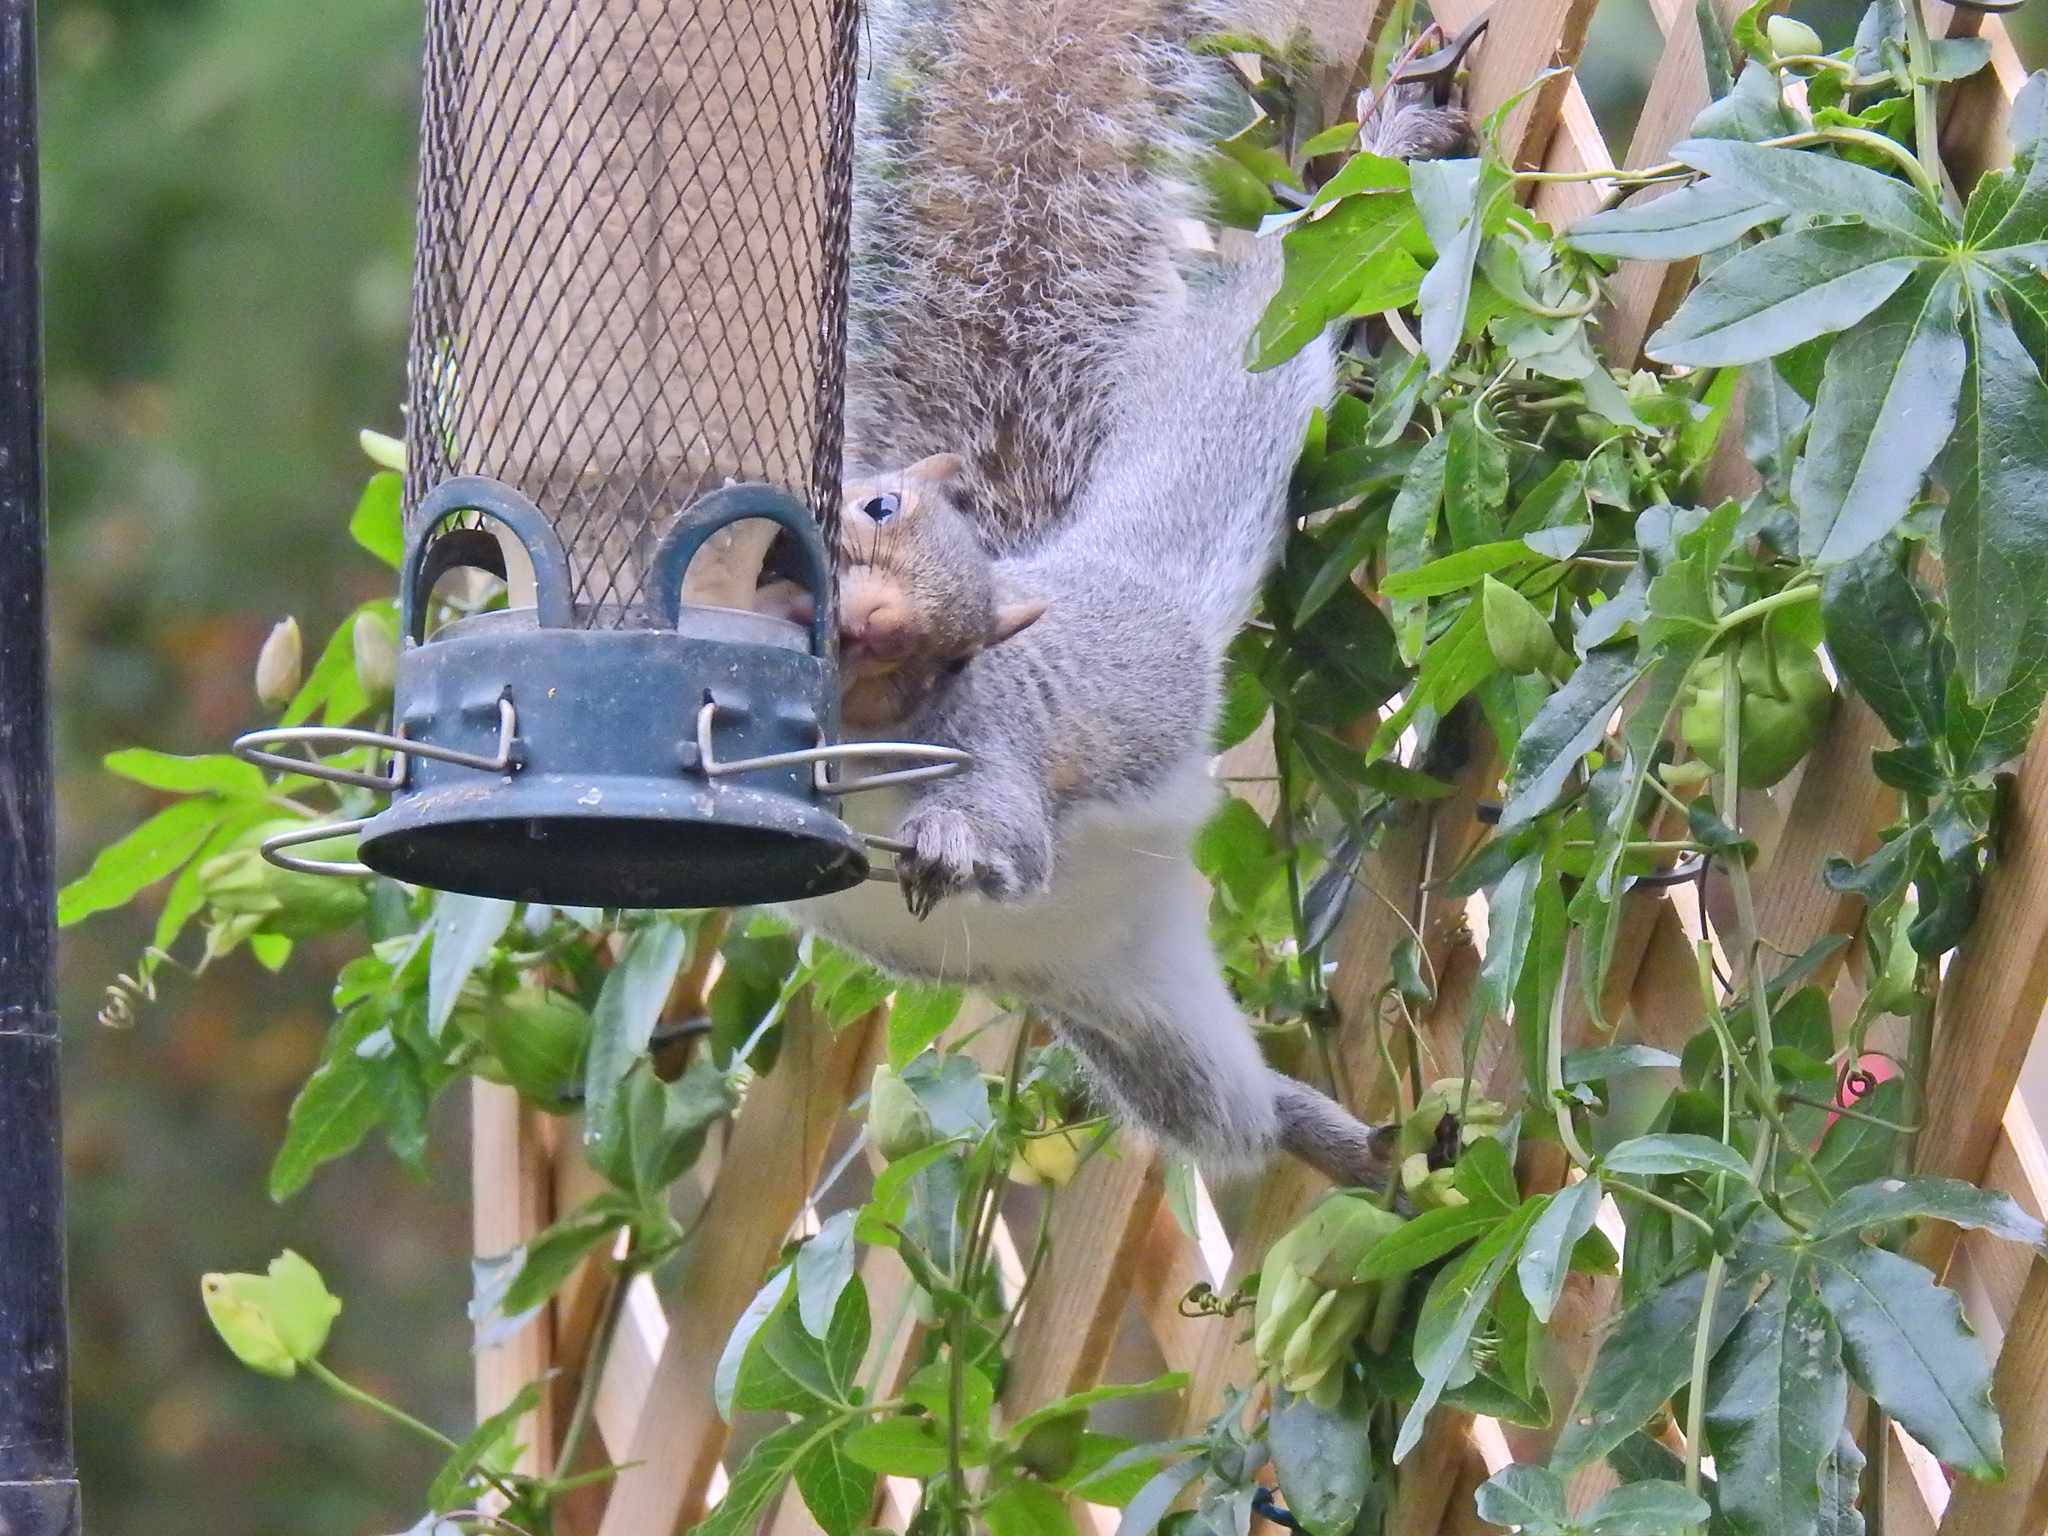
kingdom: Animalia
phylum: Chordata
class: Mammalia
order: Rodentia
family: Sciuridae
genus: Sciurus
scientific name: Sciurus carolinensis
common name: Eastern gray squirrel
